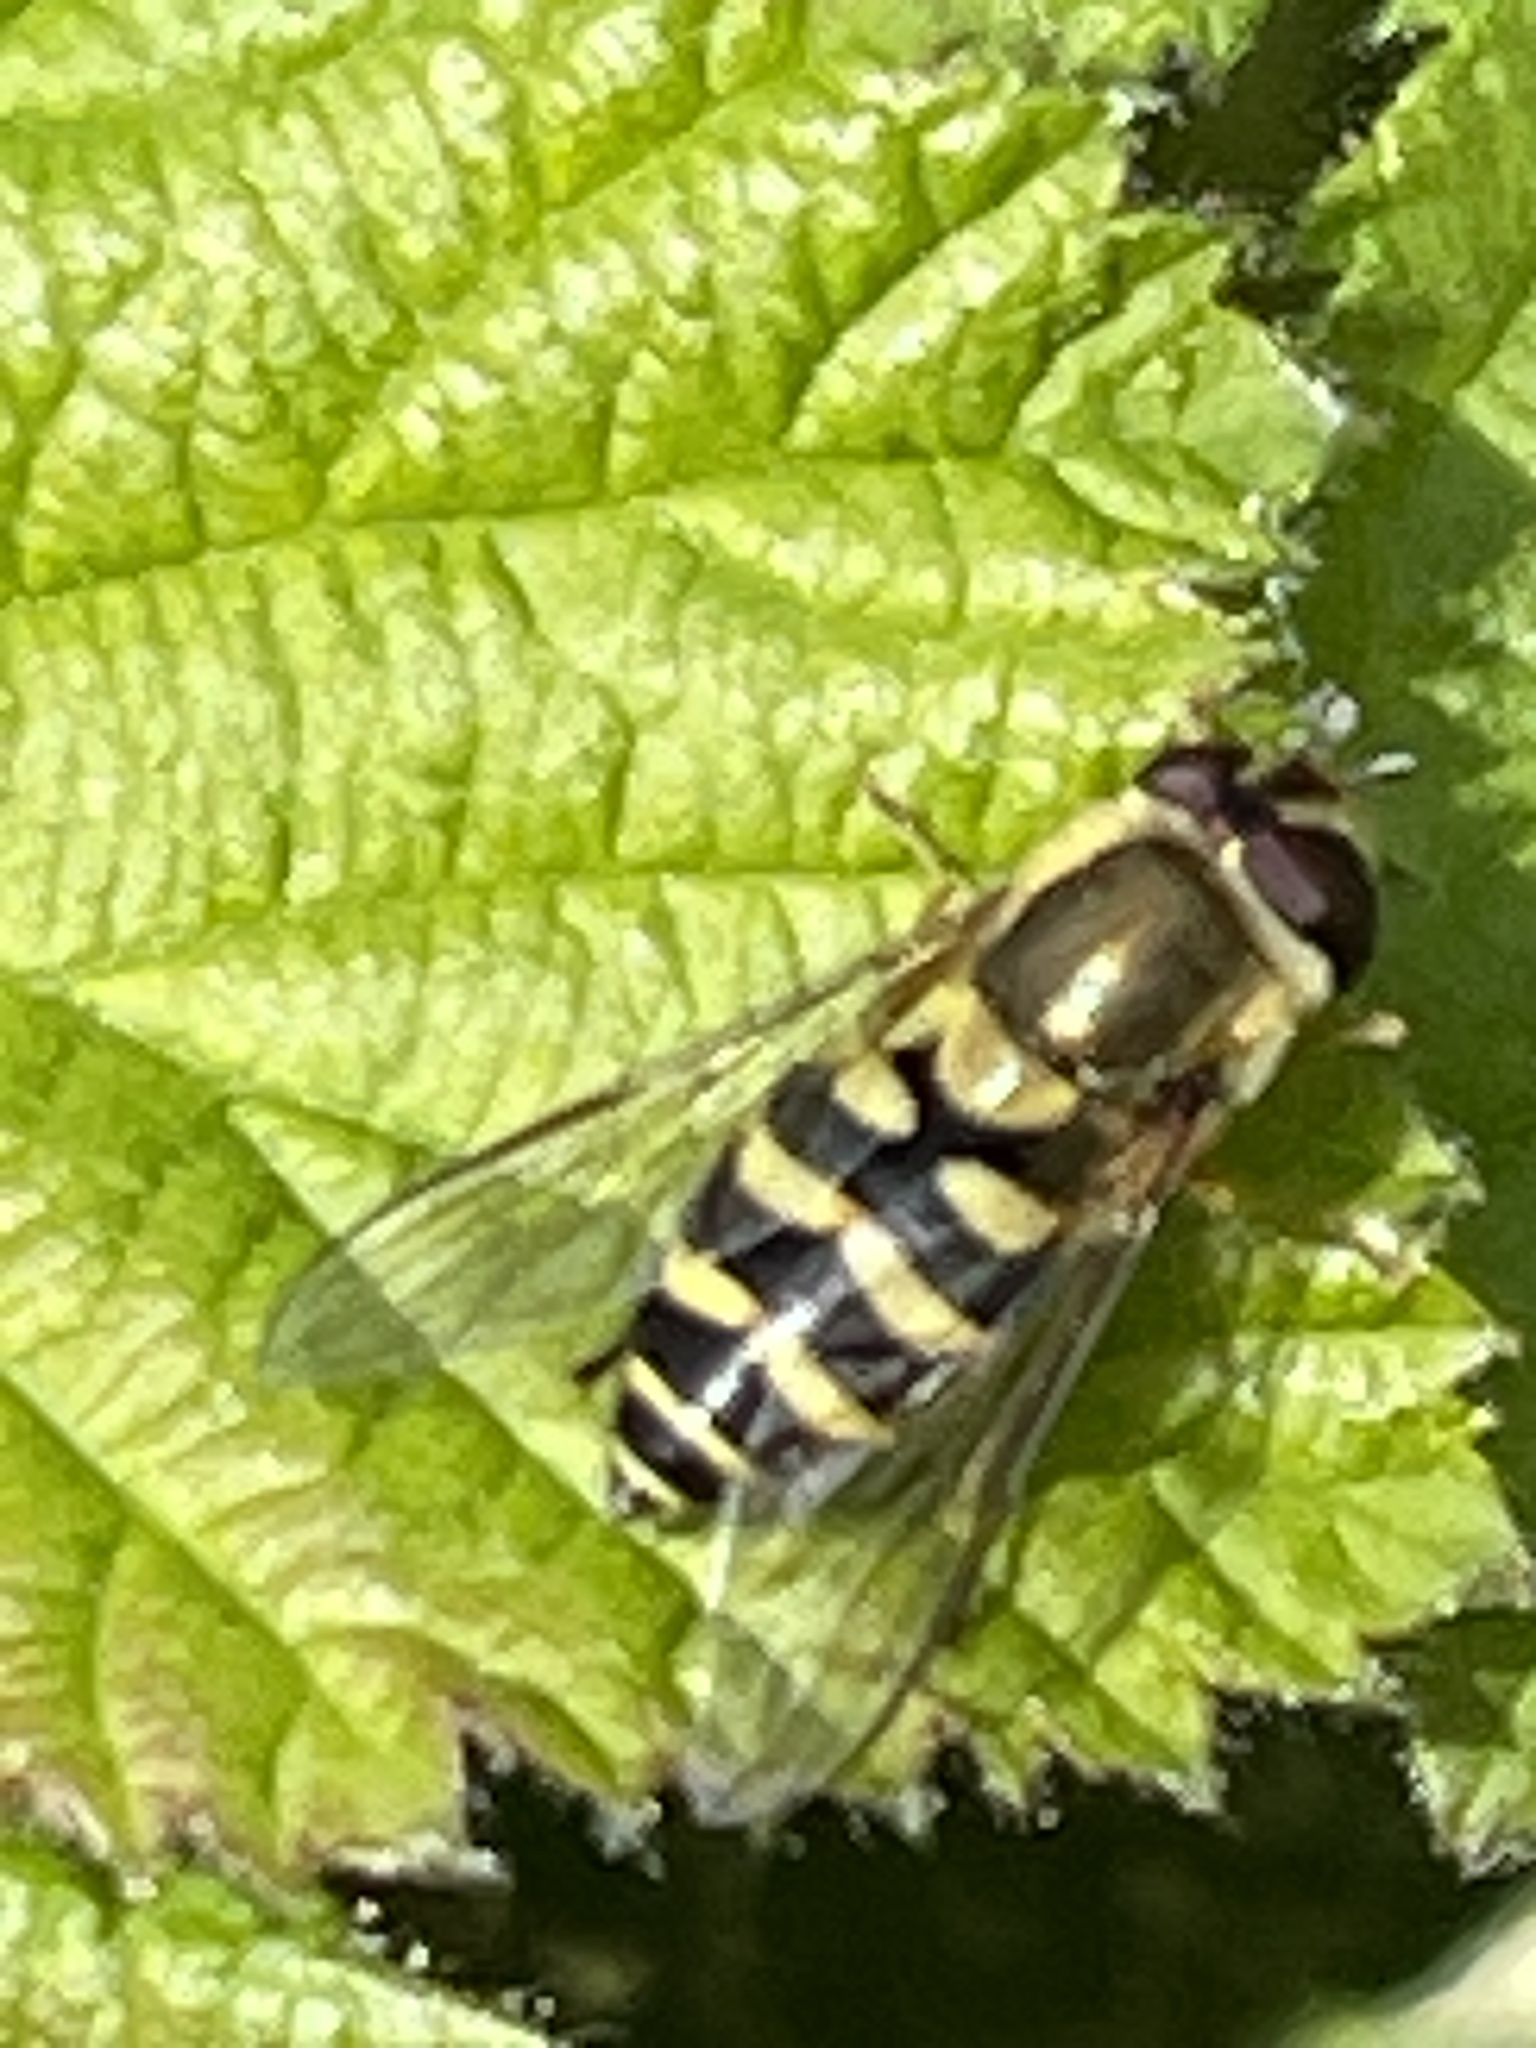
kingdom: Animalia
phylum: Arthropoda
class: Insecta
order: Diptera
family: Syrphidae
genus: Syrphus
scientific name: Syrphus
